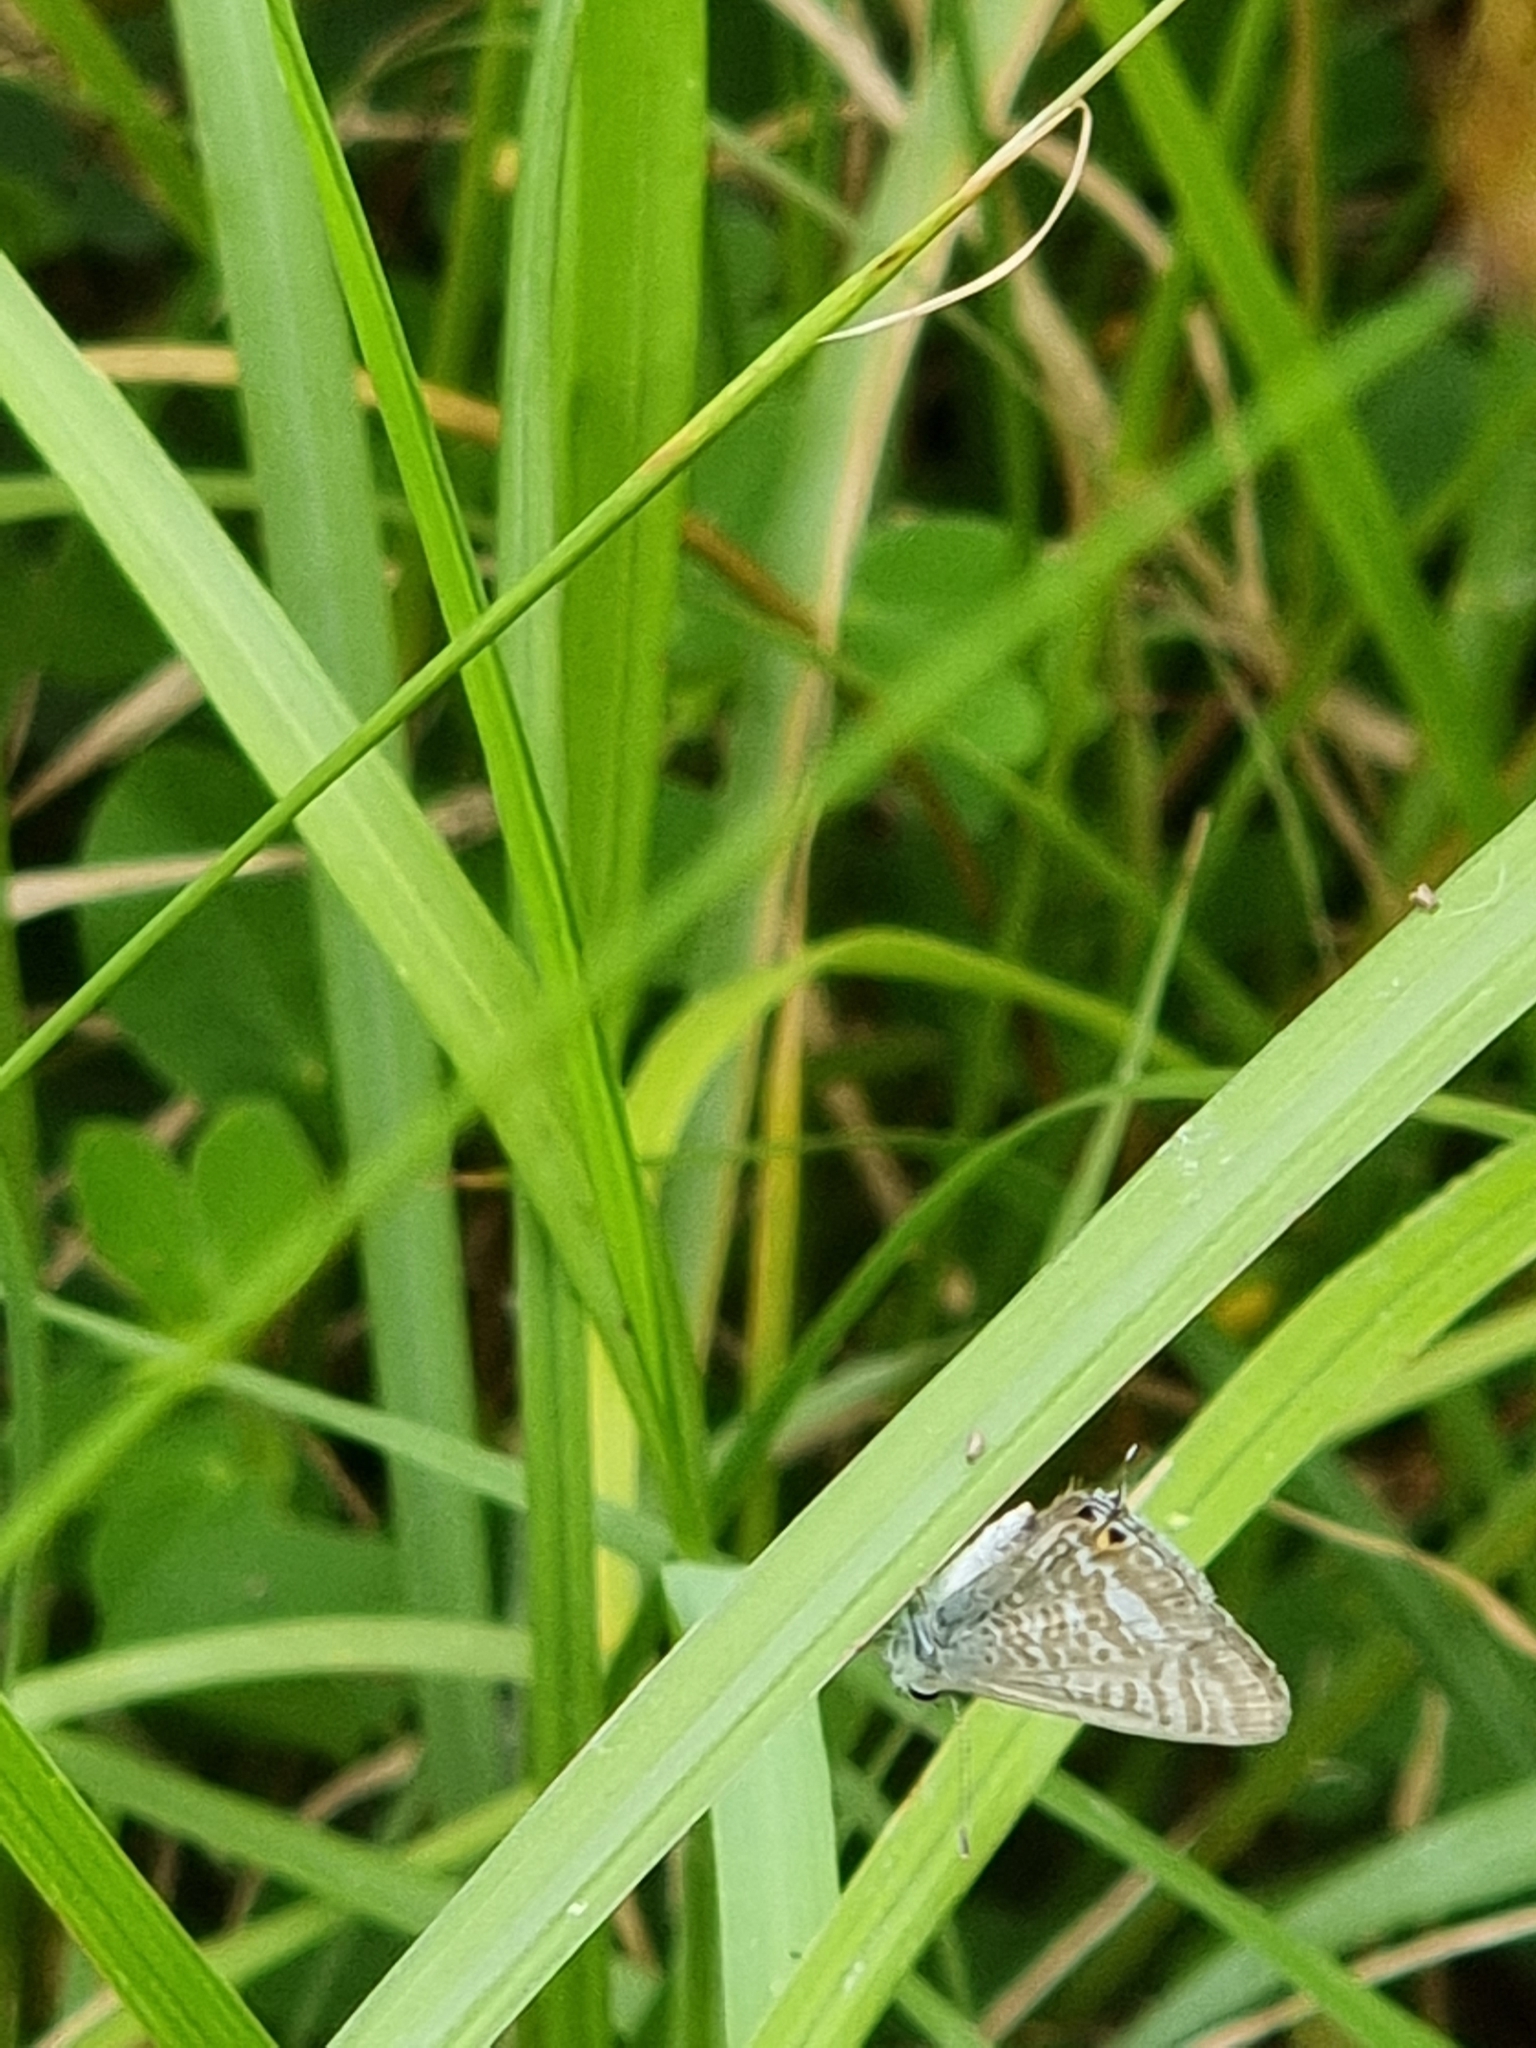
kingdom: Animalia
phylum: Arthropoda
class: Insecta
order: Lepidoptera
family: Lycaenidae
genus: Lampides
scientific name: Lampides boeticus
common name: Long-tailed blue
